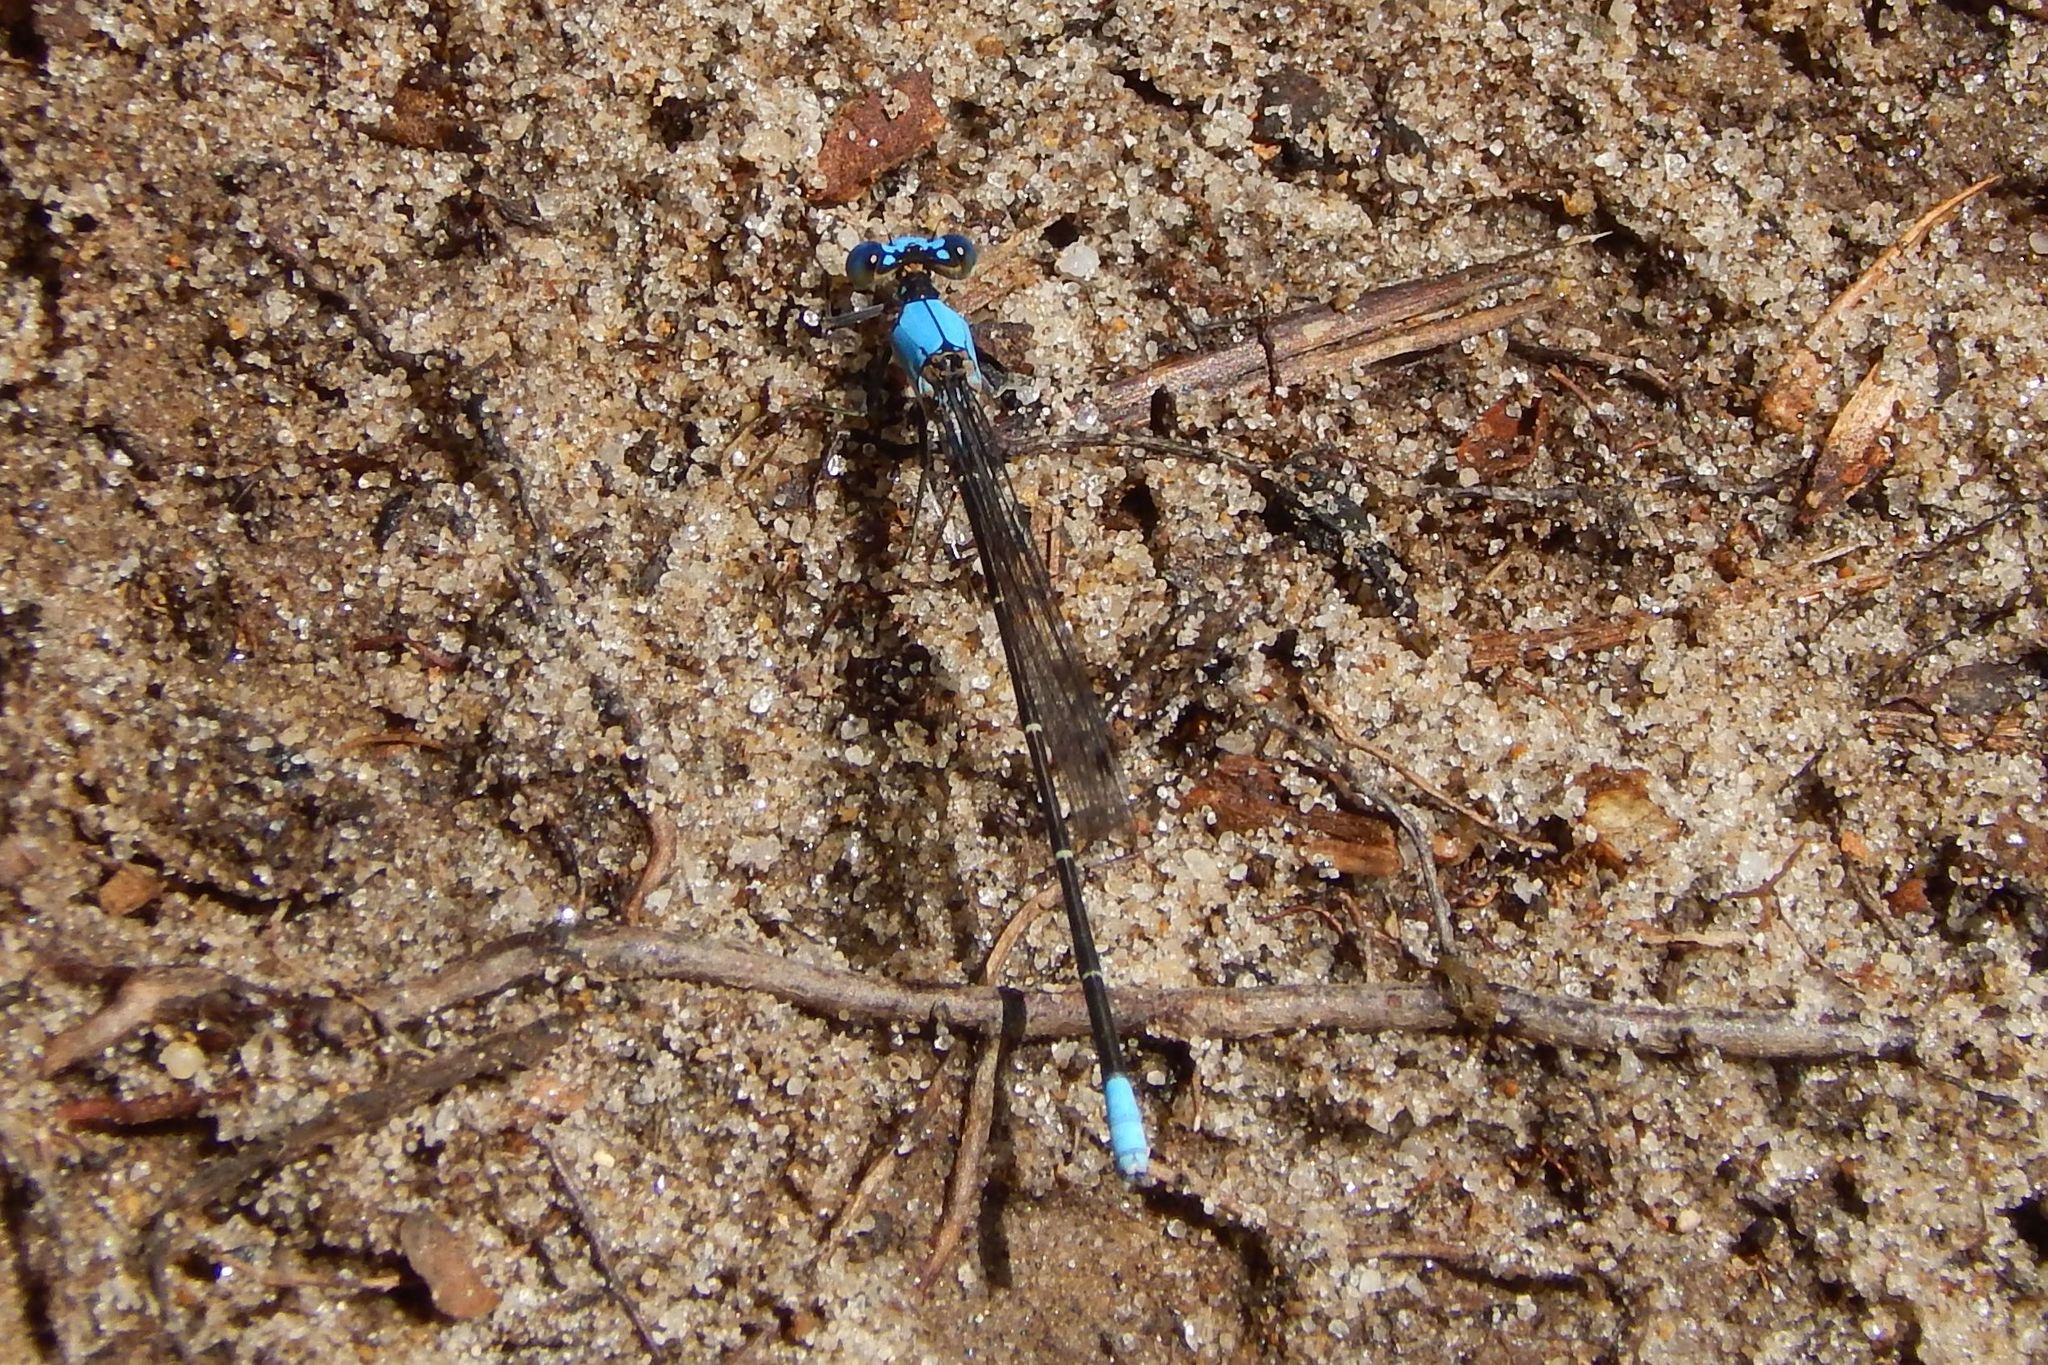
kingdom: Animalia
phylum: Arthropoda
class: Insecta
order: Odonata
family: Coenagrionidae
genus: Argia
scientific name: Argia apicalis
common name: Blue-fronted dancer
